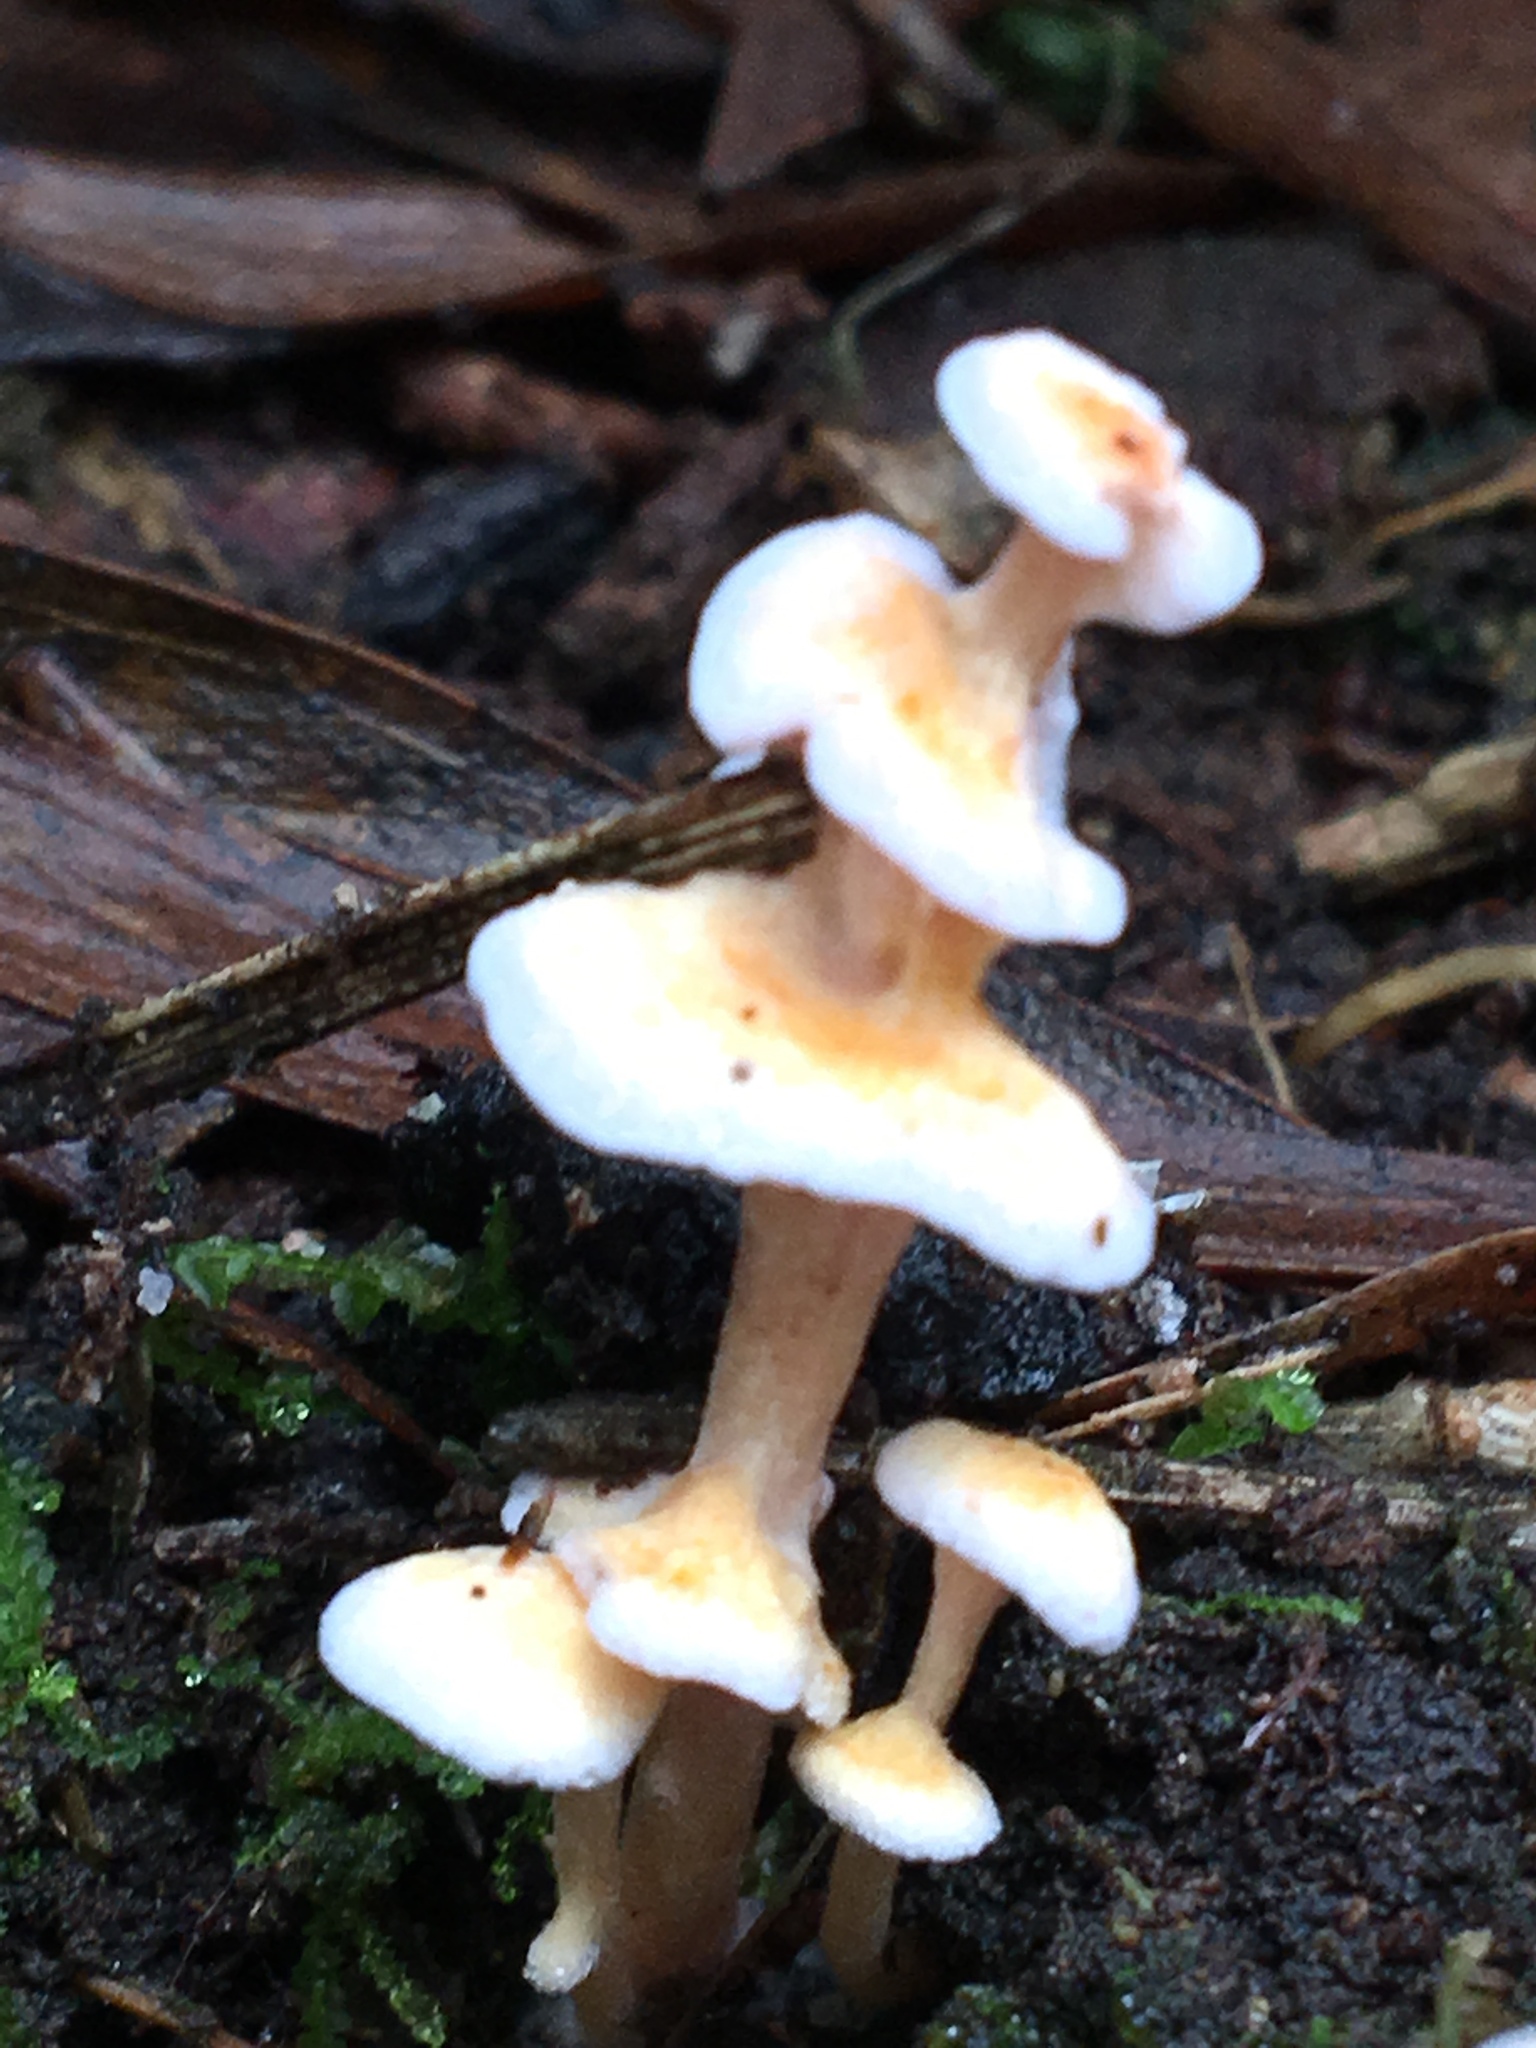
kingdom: Fungi
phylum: Basidiomycota
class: Agaricomycetes
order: Amylocorticiales
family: Amylocorticiaceae
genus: Podoserpula
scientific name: Podoserpula pusio
